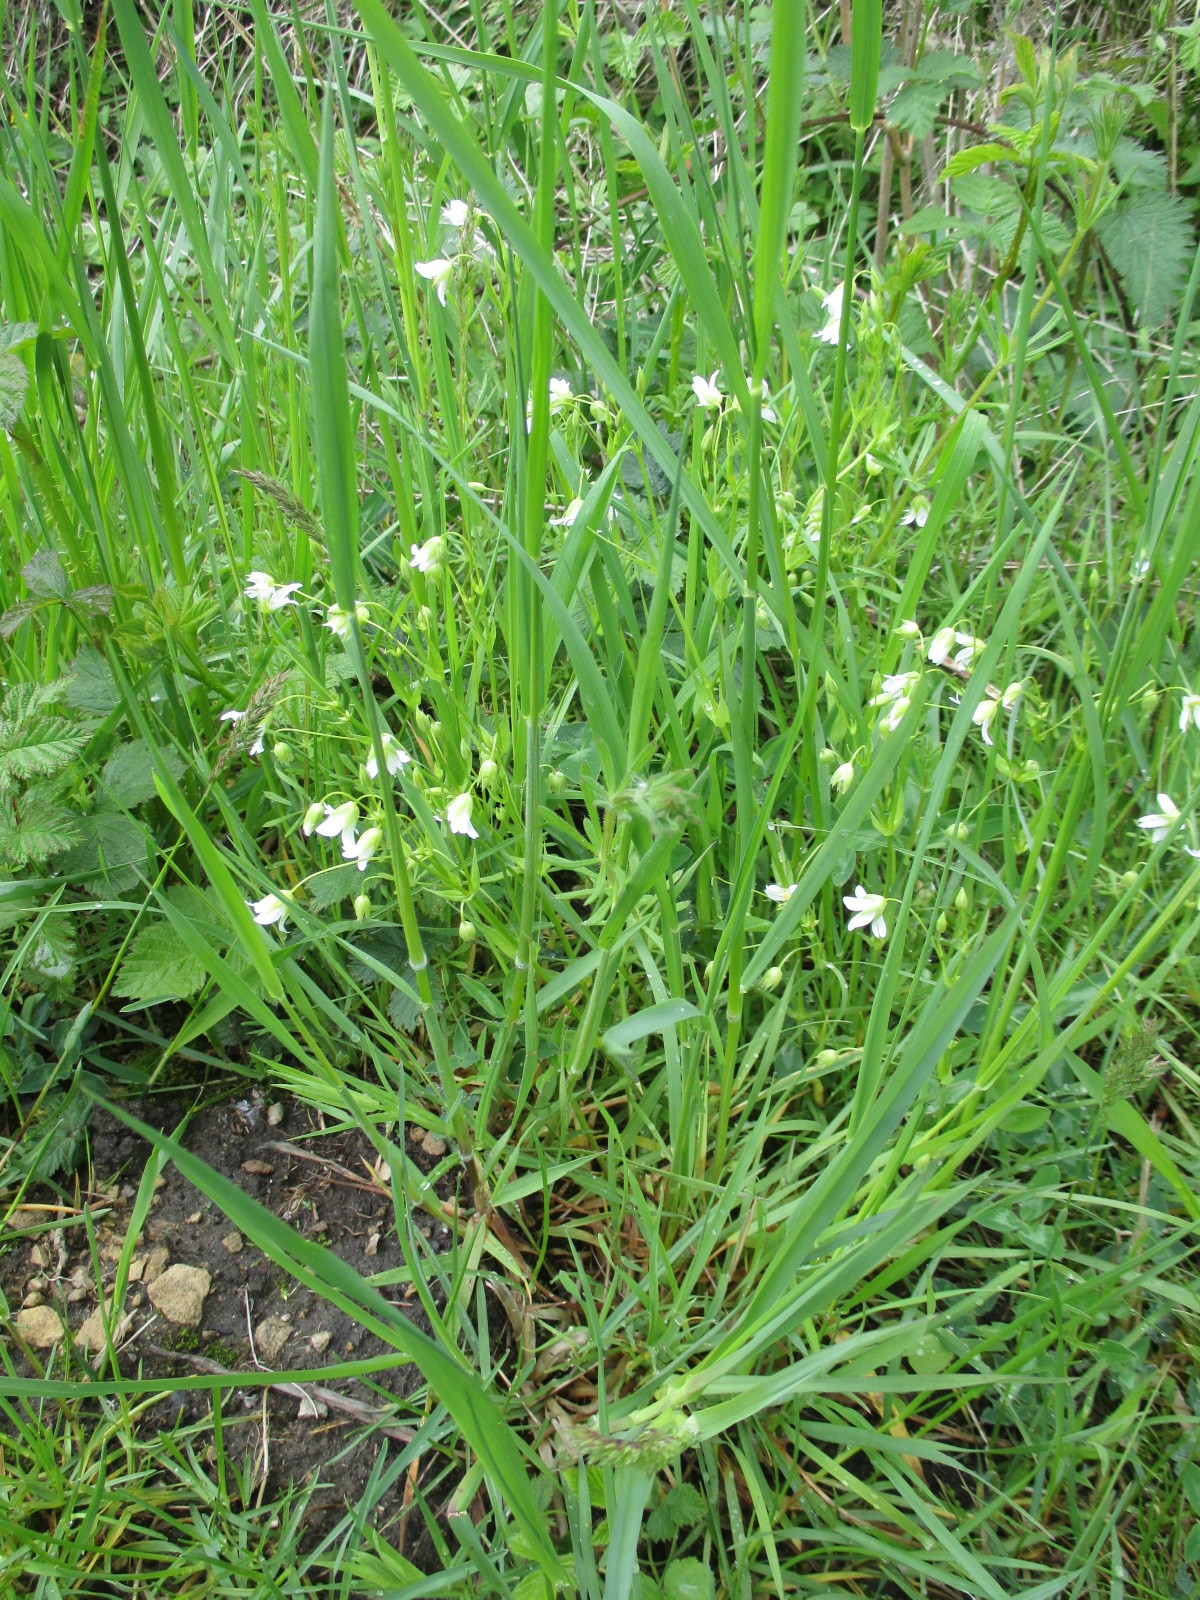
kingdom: Plantae
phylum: Tracheophyta
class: Magnoliopsida
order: Caryophyllales
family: Caryophyllaceae
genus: Rabelera
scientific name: Rabelera holostea
